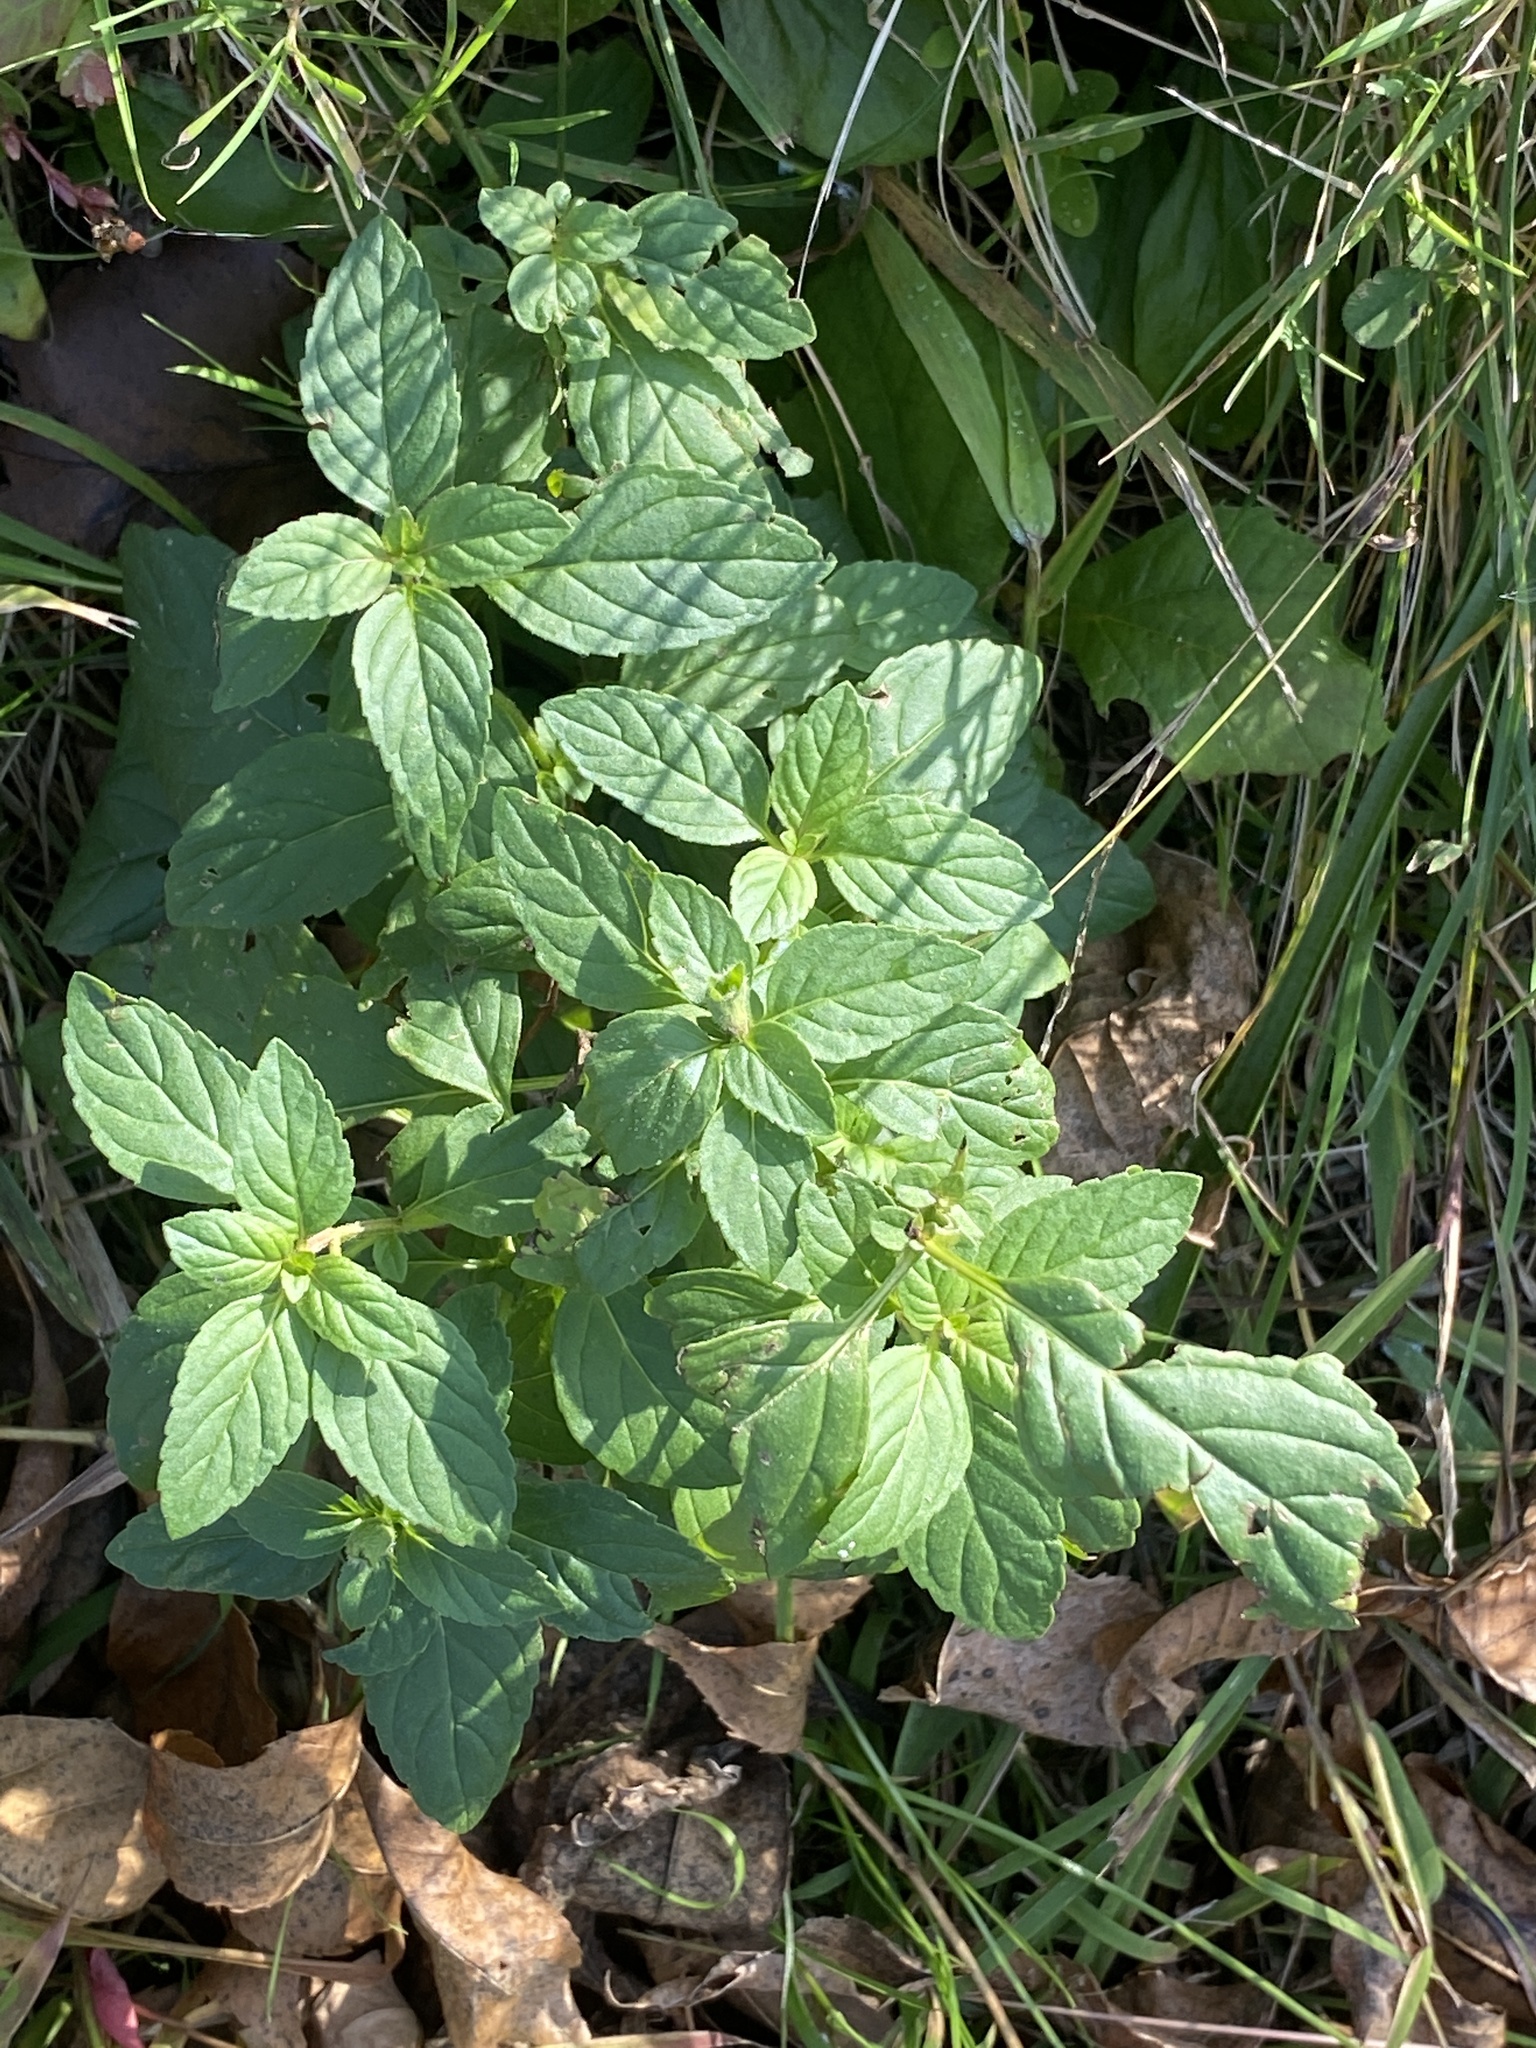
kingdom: Plantae
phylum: Tracheophyta
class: Magnoliopsida
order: Lamiales
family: Lamiaceae
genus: Mentha
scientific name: Mentha arvensis
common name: Corn mint
